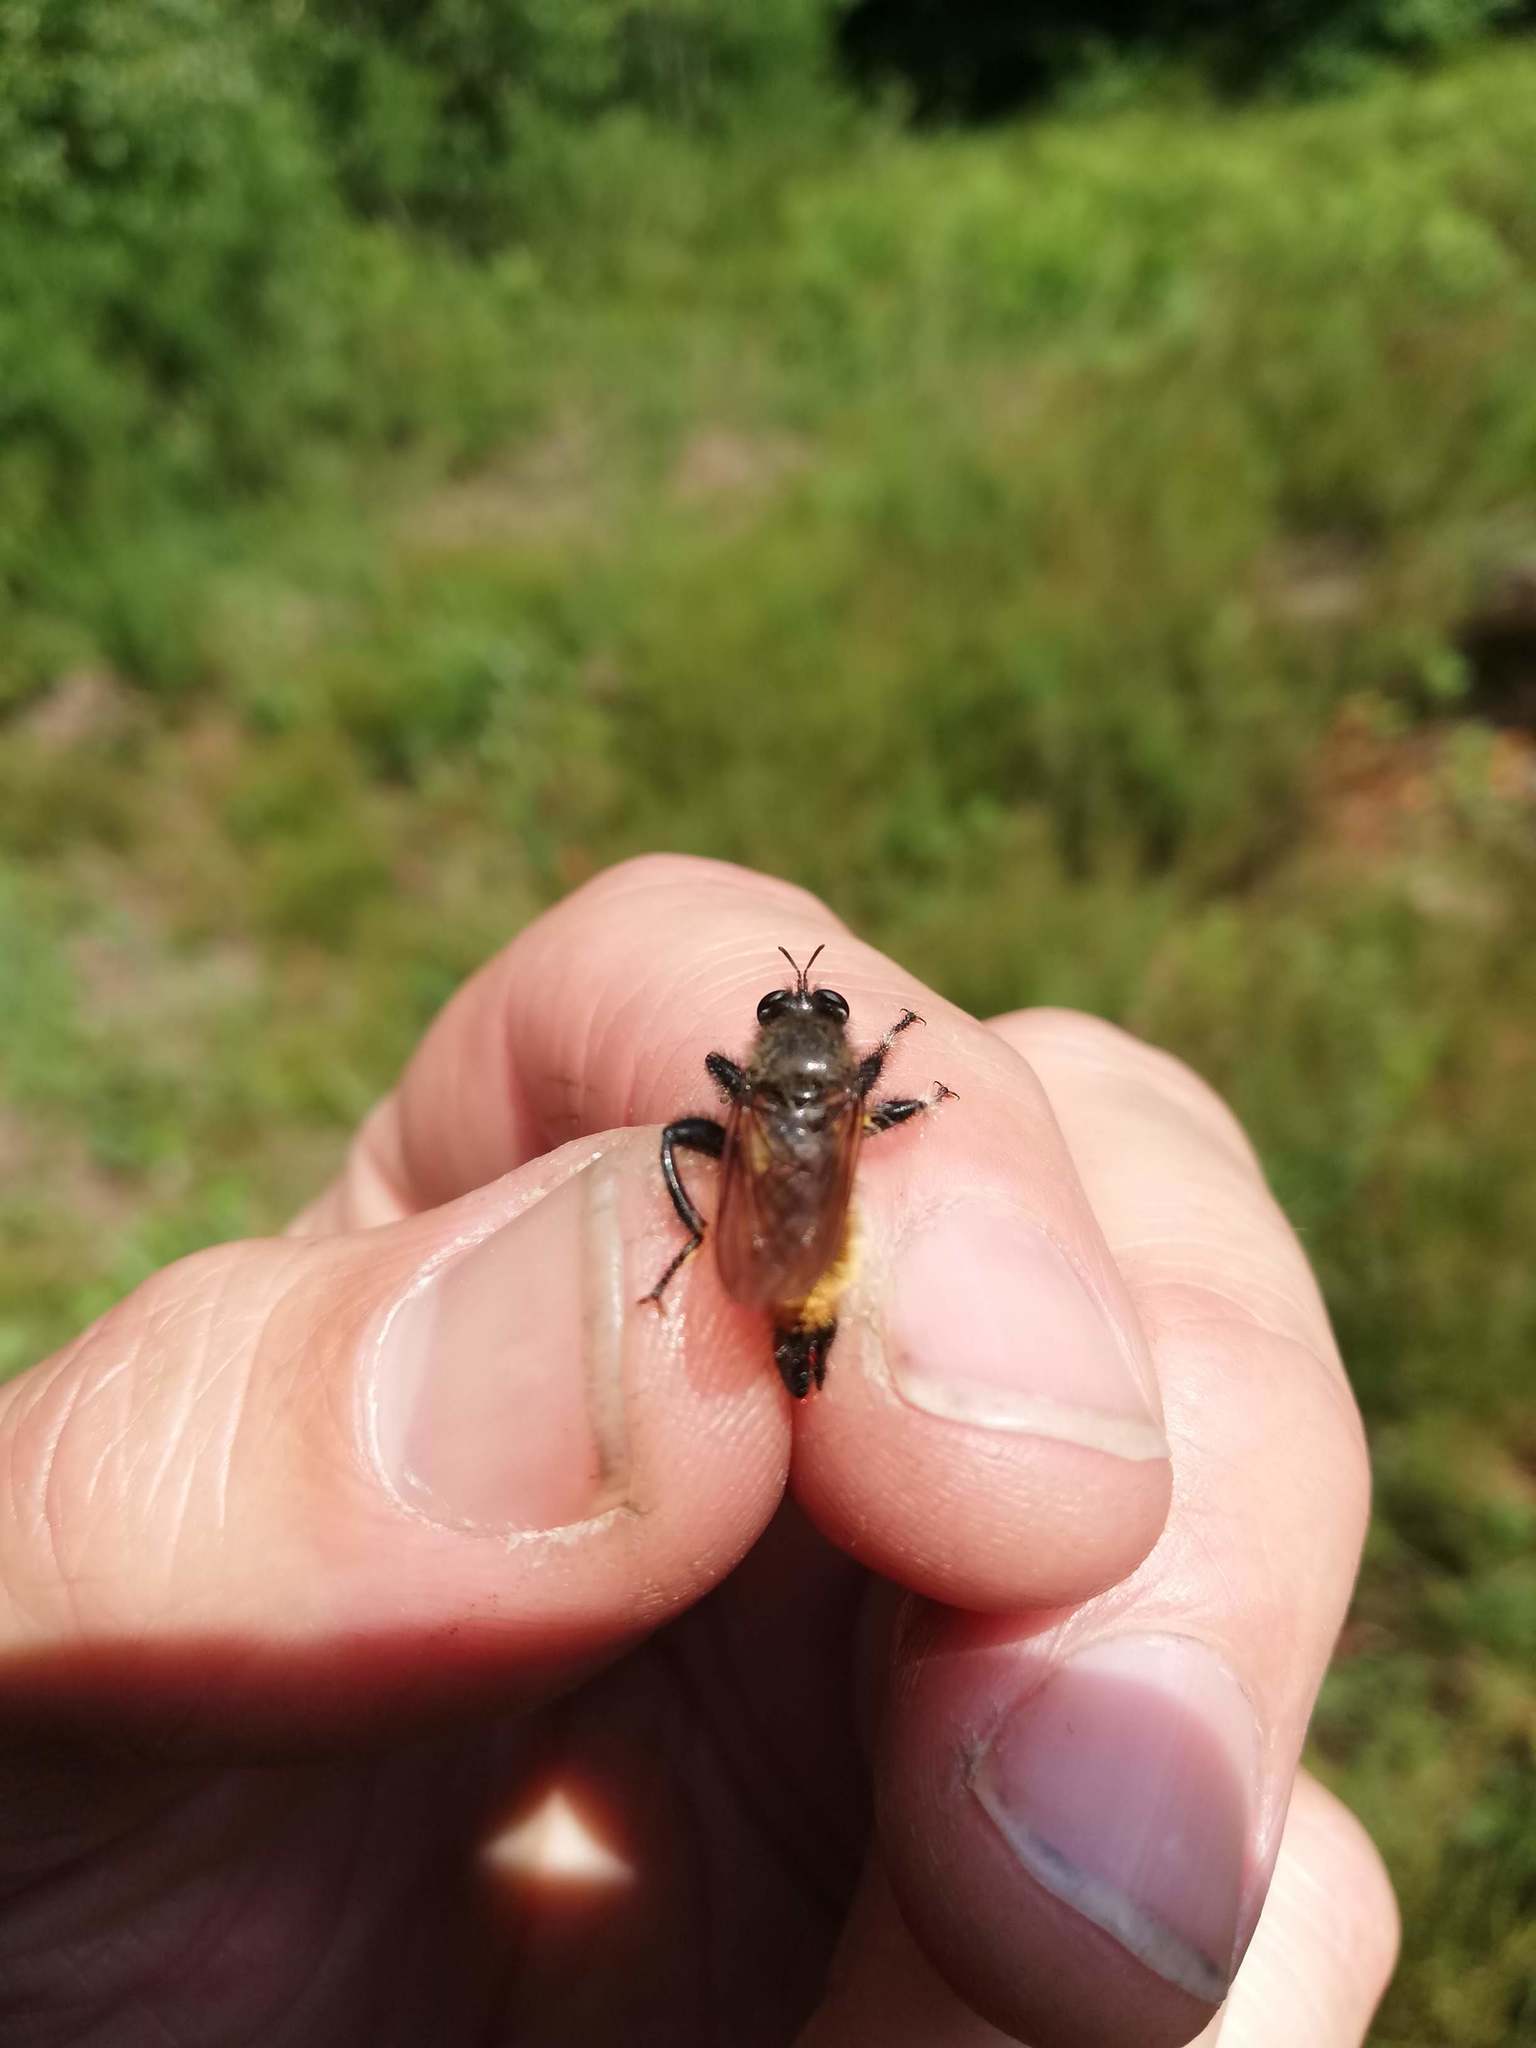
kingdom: Animalia
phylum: Arthropoda
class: Insecta
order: Diptera
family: Asilidae
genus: Laphria
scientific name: Laphria flava
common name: Bumblebee robberfly
